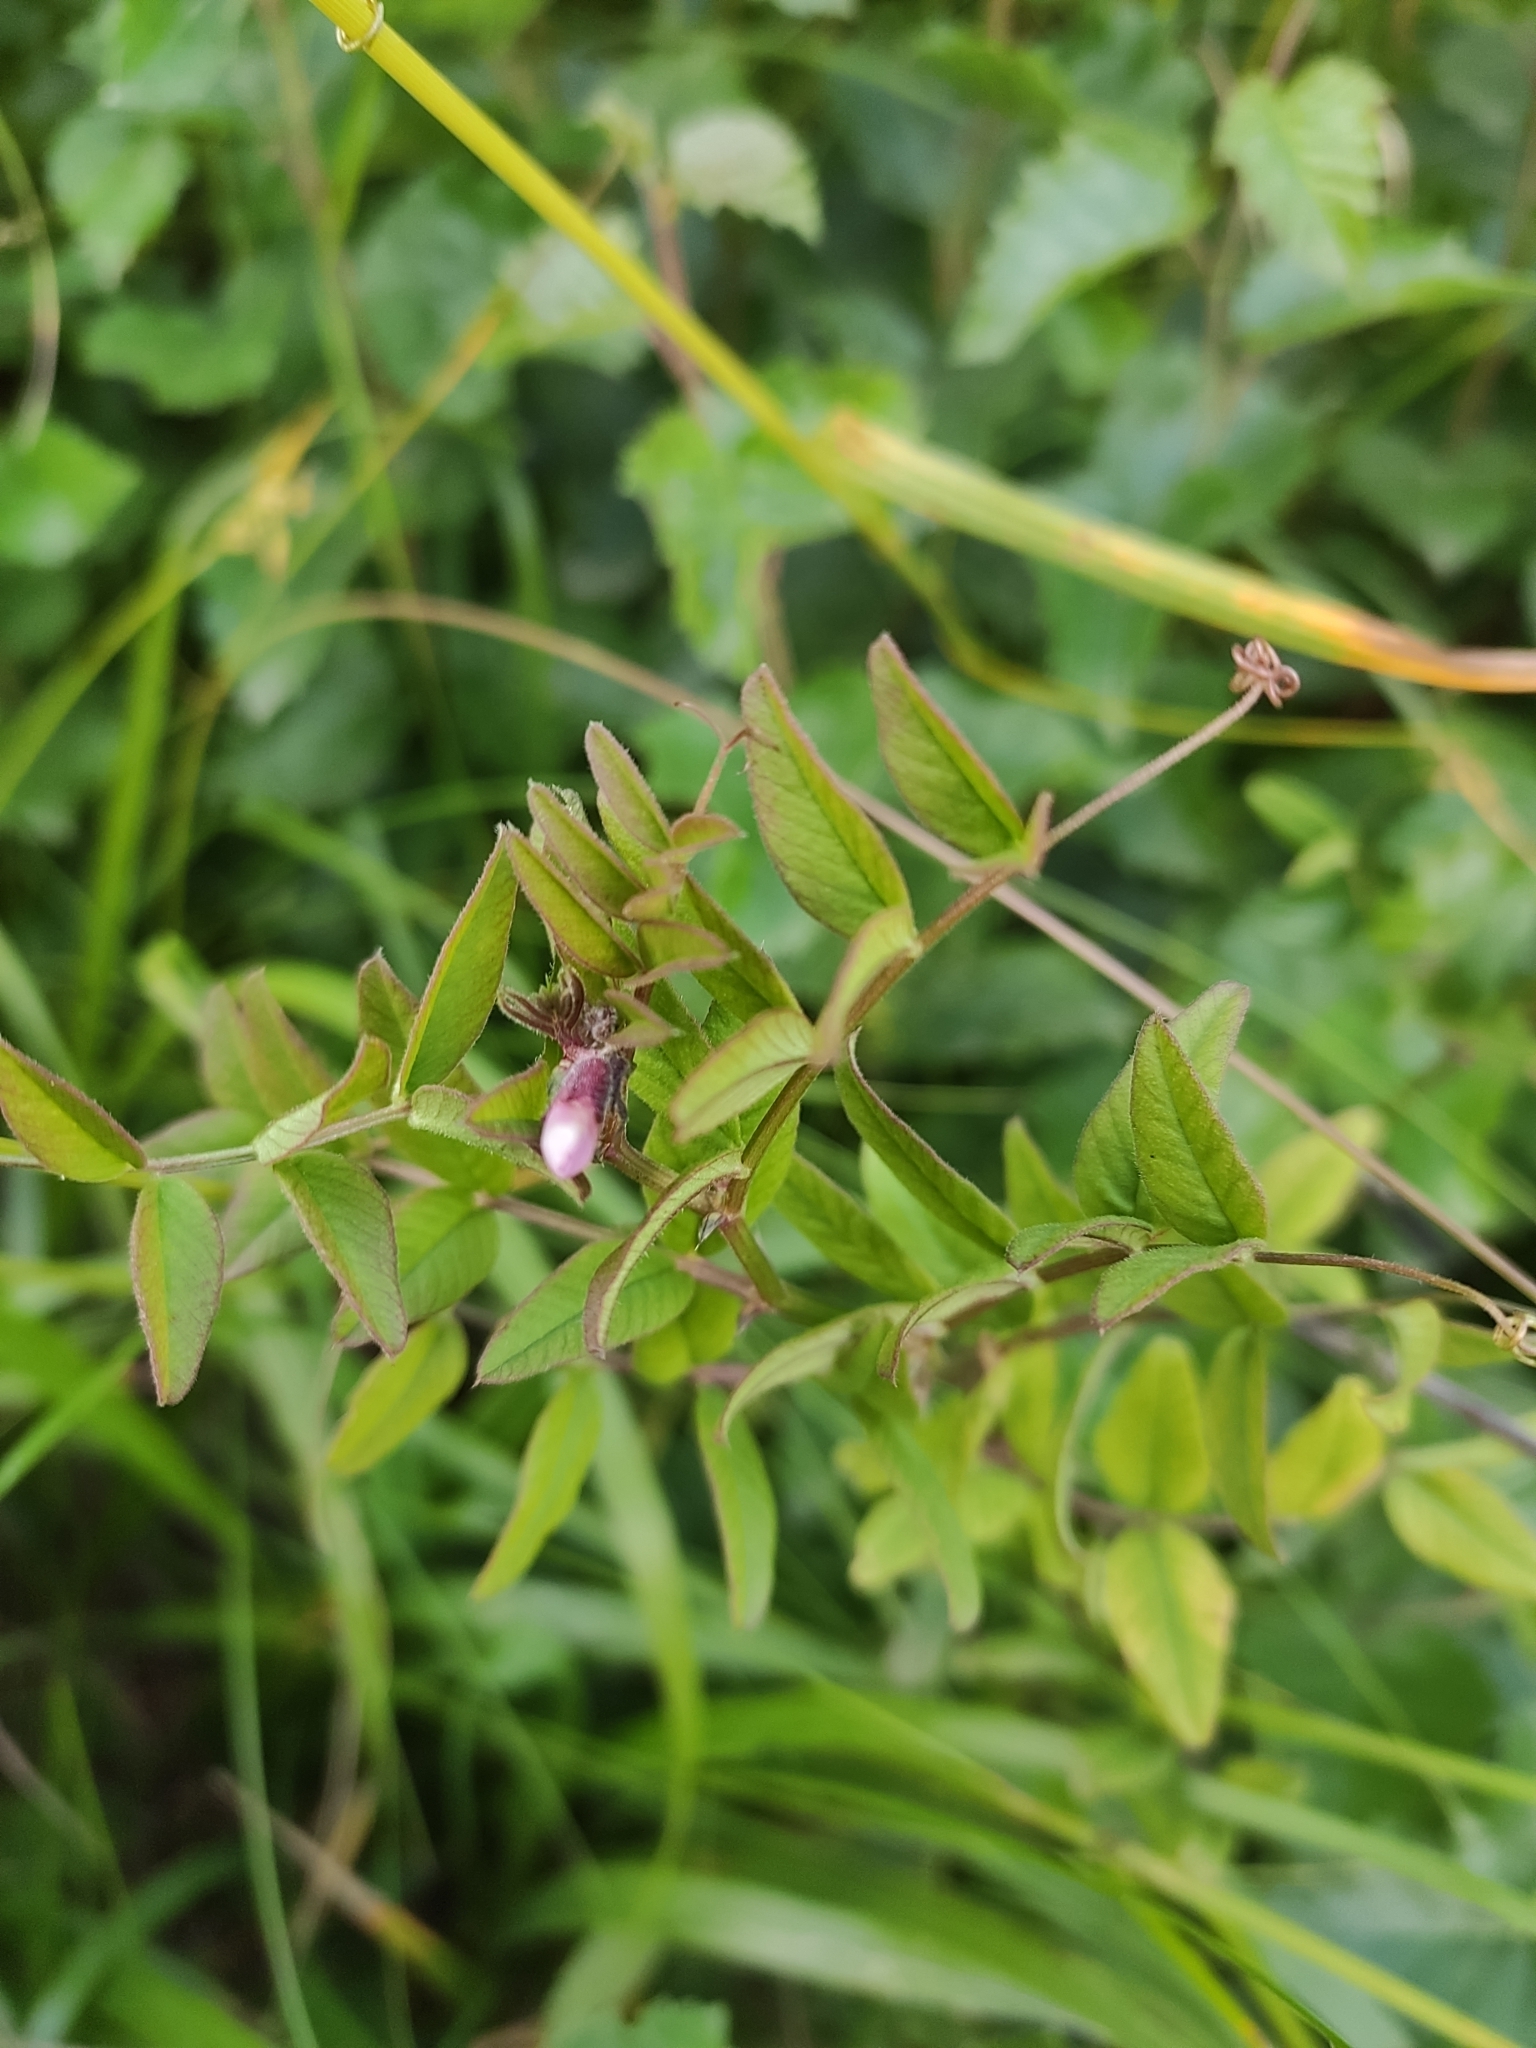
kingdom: Plantae
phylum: Tracheophyta
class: Magnoliopsida
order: Fabales
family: Fabaceae
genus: Vicia
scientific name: Vicia sepium
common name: Bush vetch
